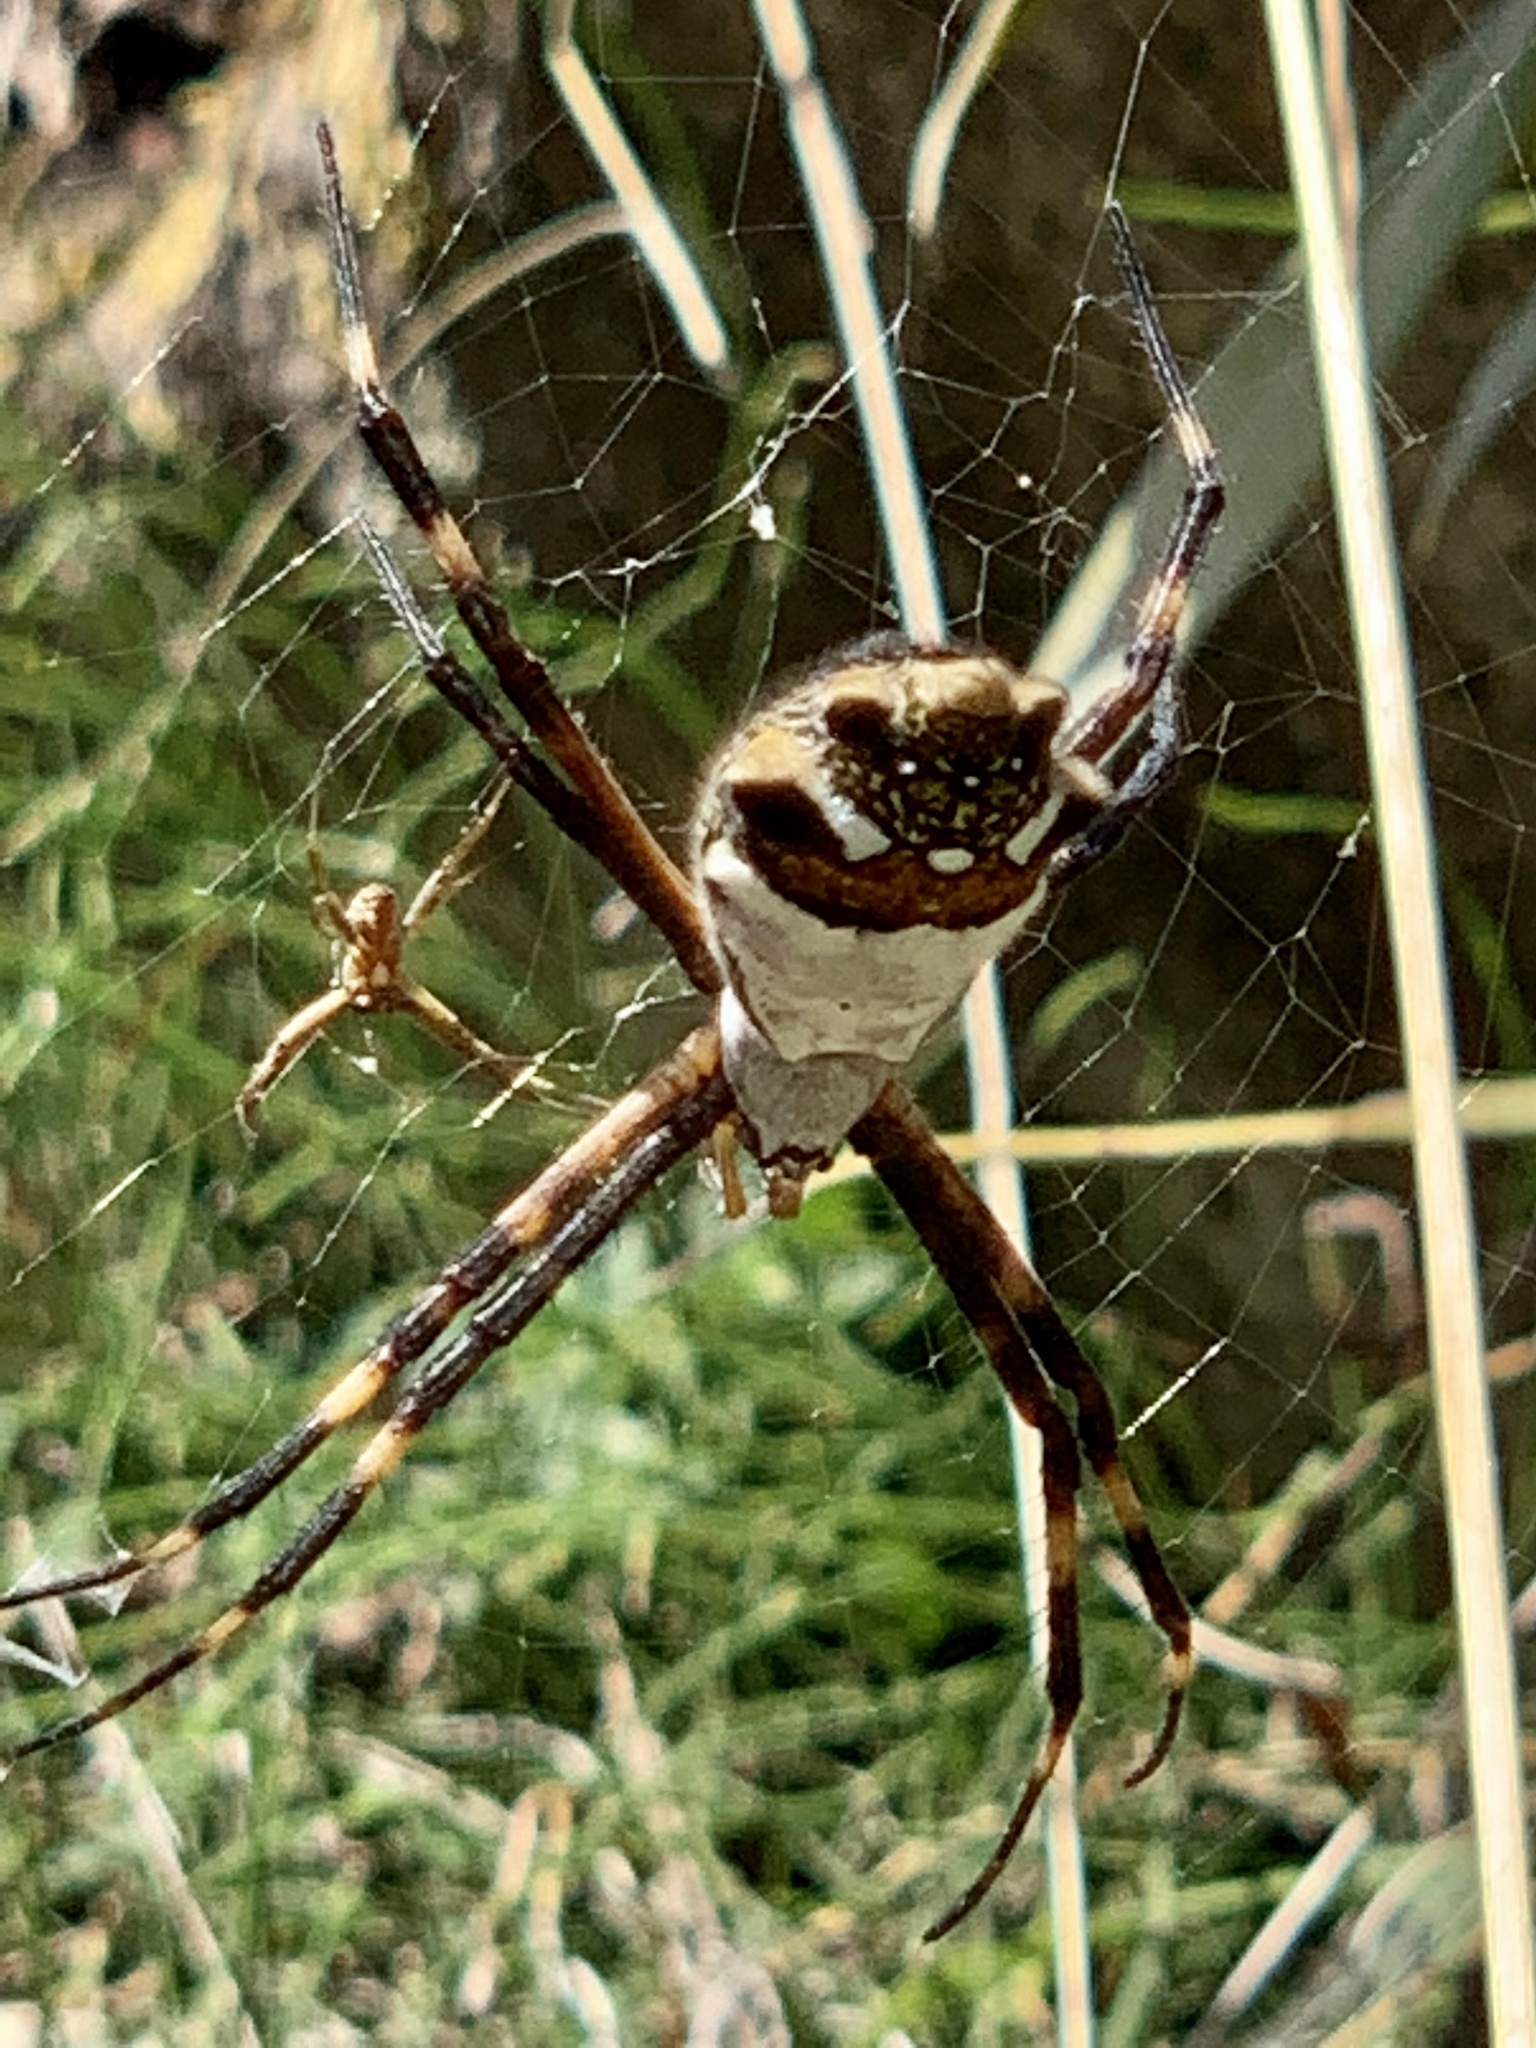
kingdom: Animalia
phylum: Arthropoda
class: Arachnida
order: Araneae
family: Araneidae
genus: Argiope
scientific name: Argiope argentata
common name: Orb weavers
